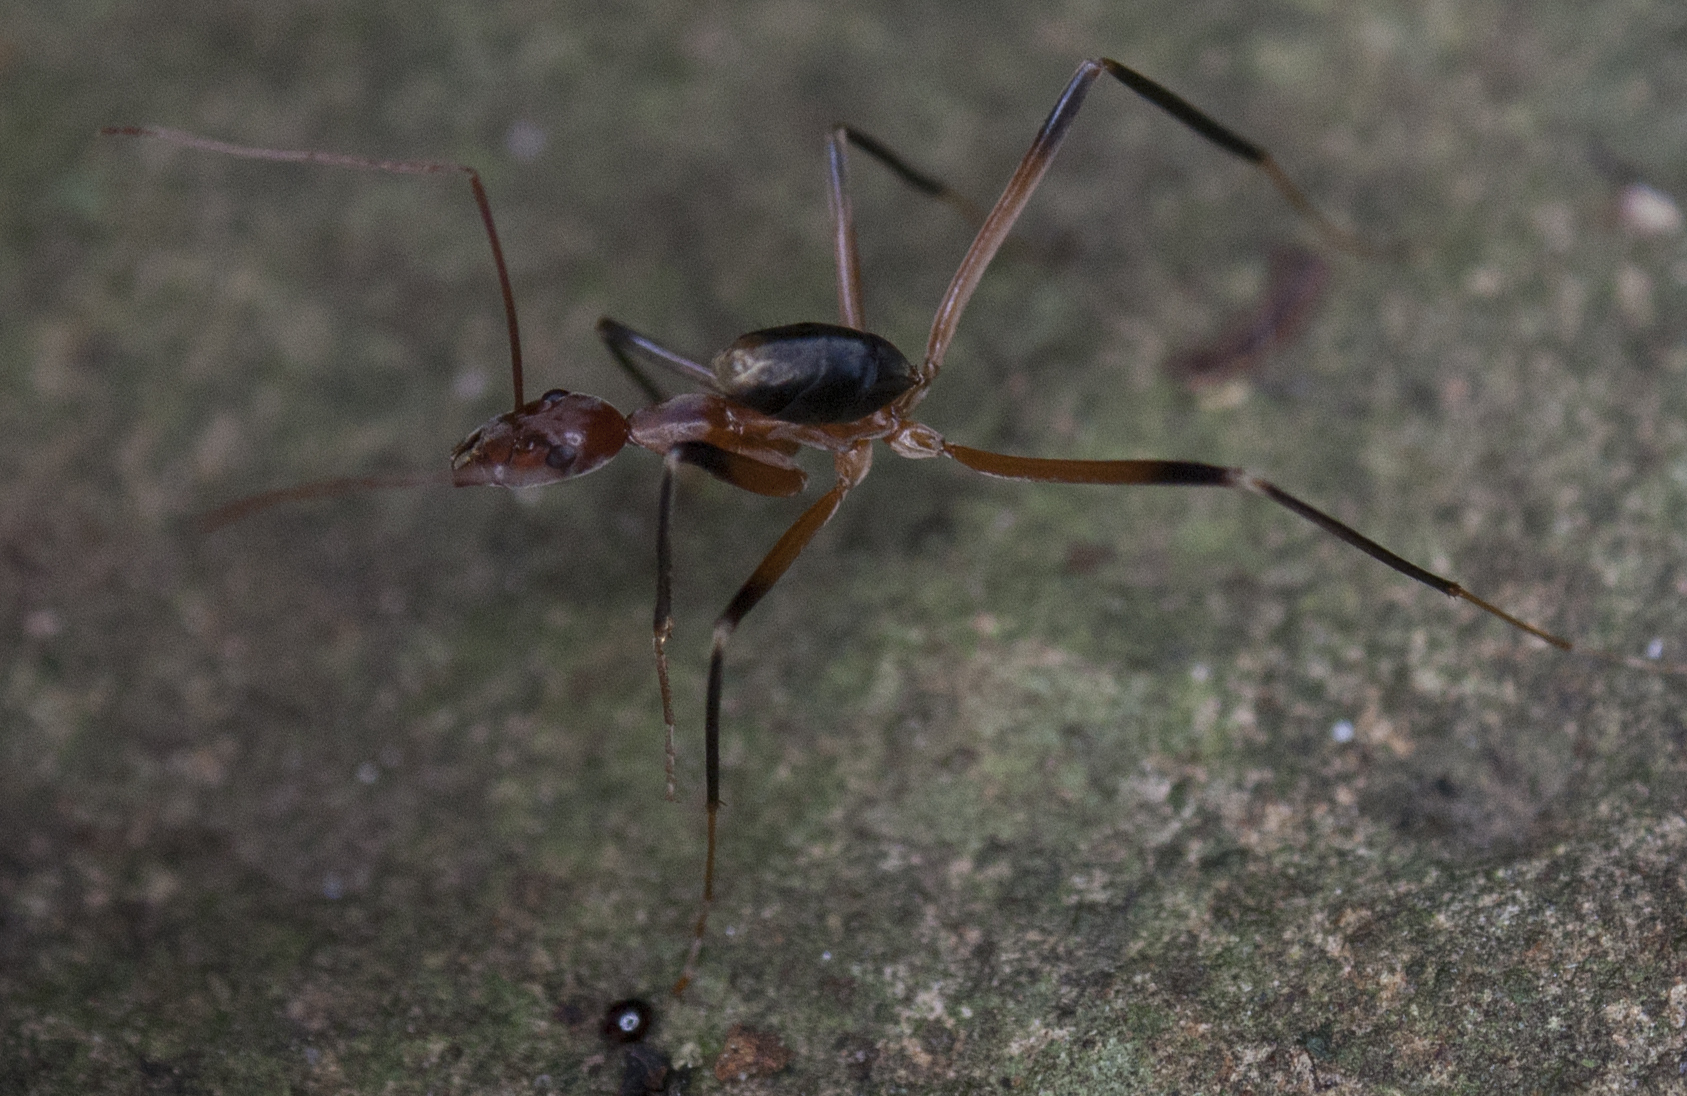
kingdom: Animalia
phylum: Arthropoda
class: Insecta
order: Hymenoptera
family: Formicidae
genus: Leptomyrmex
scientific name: Leptomyrmex cnemidatus
